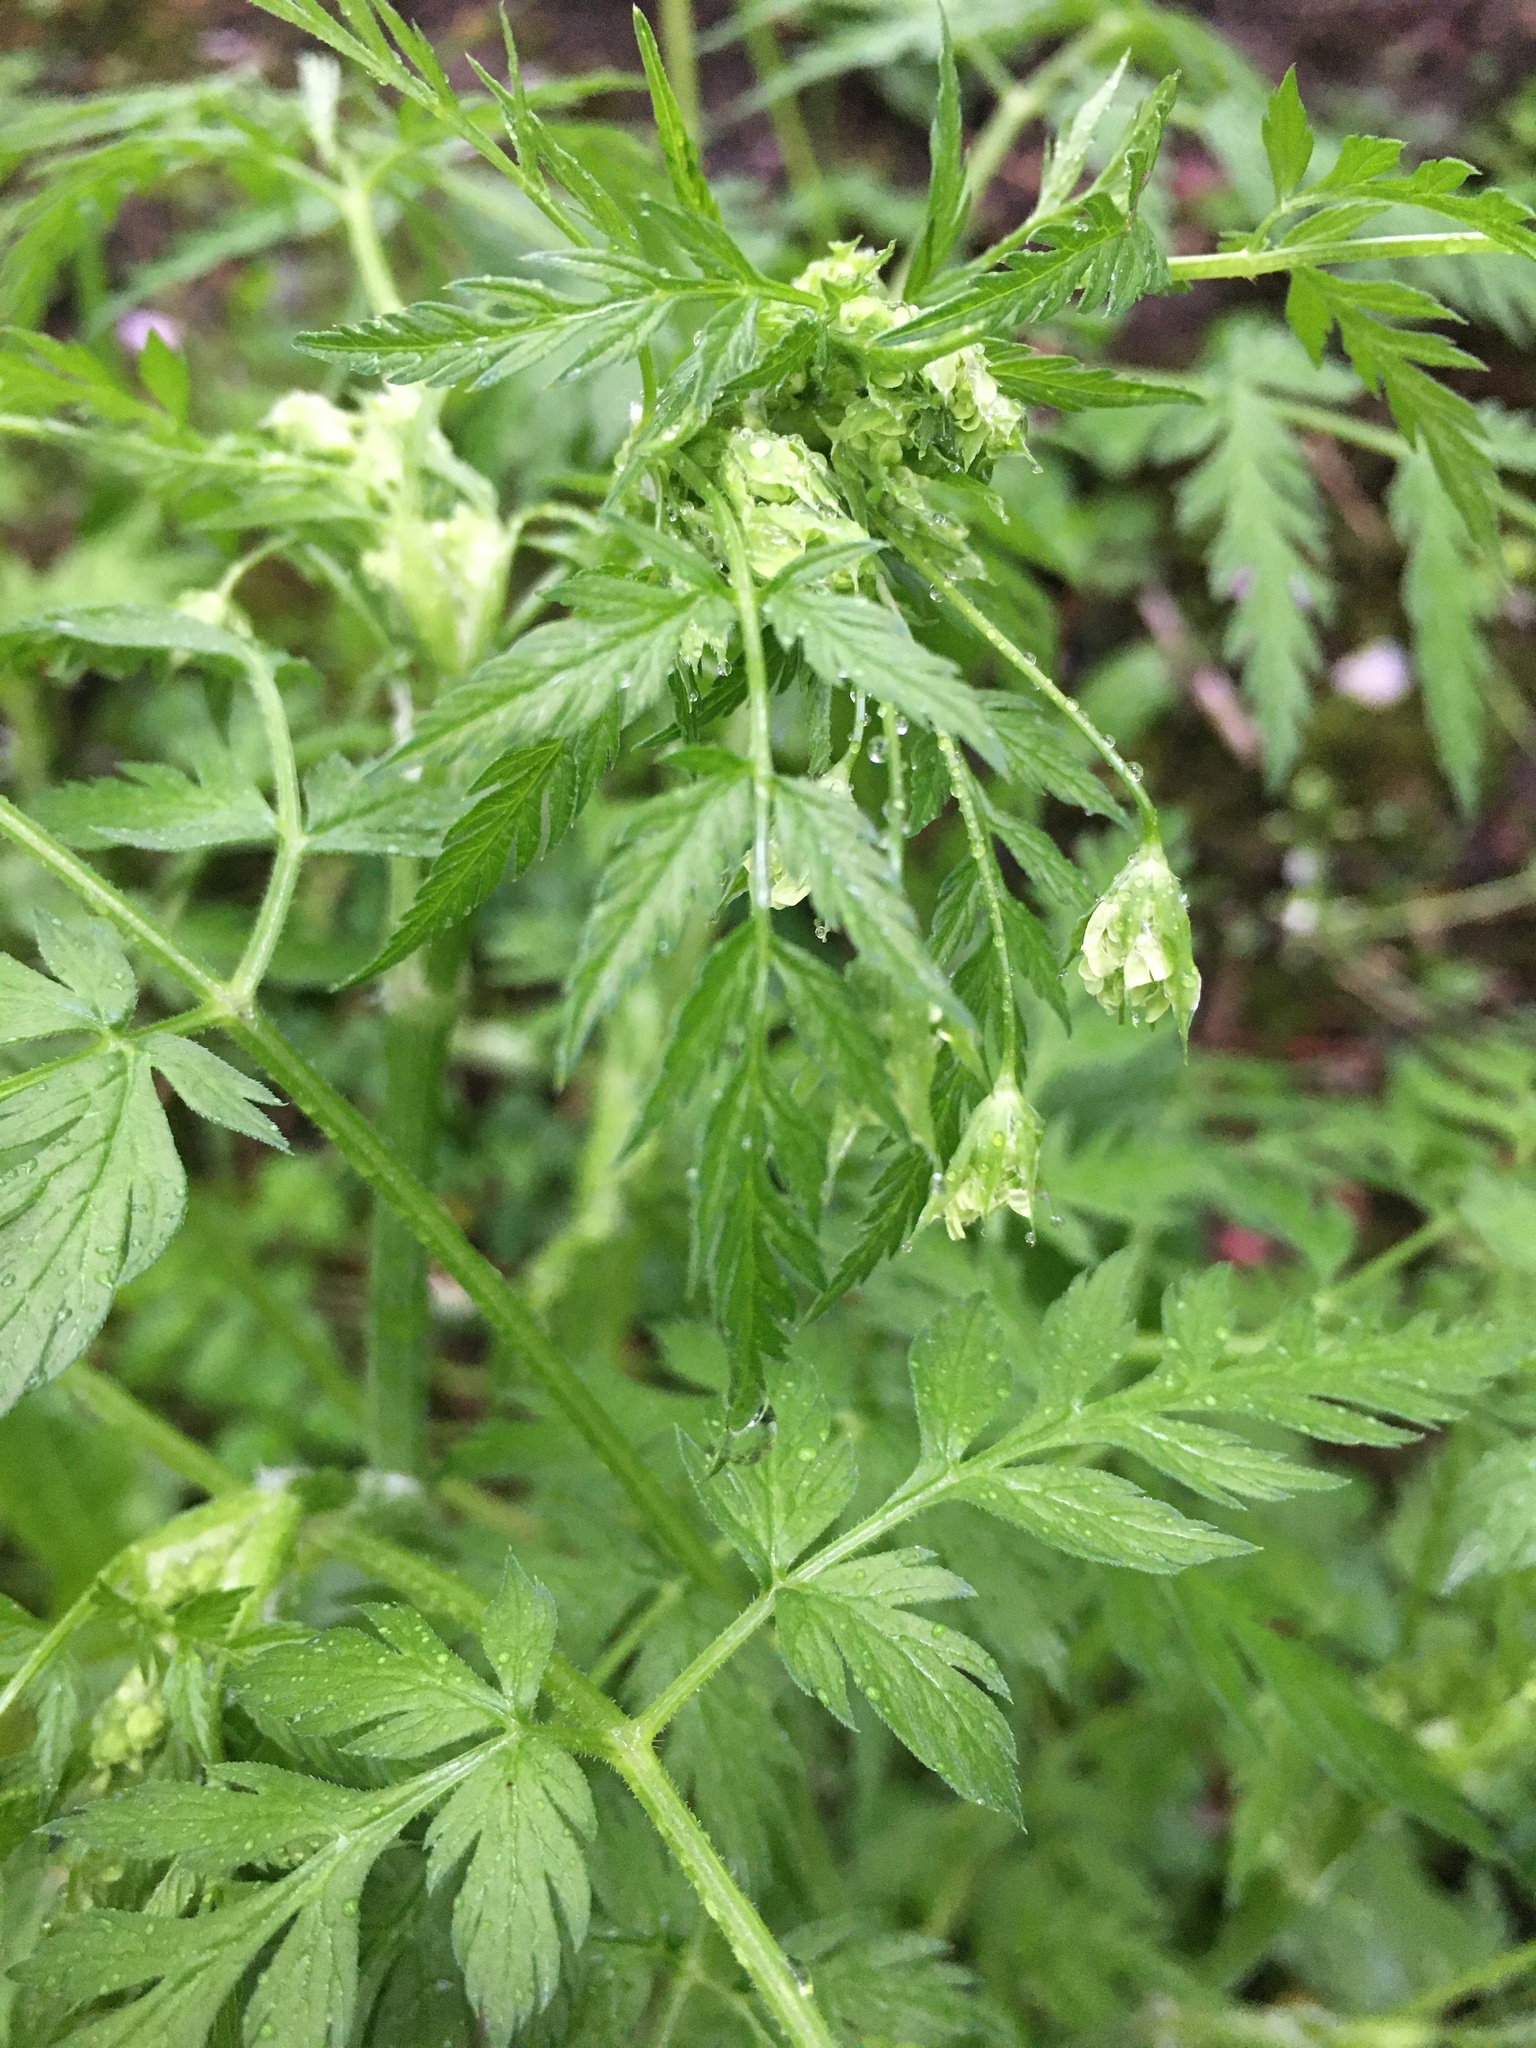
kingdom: Plantae
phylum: Tracheophyta
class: Magnoliopsida
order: Apiales
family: Apiaceae
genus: Anthriscus
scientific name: Anthriscus sylvestris
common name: Cow parsley
